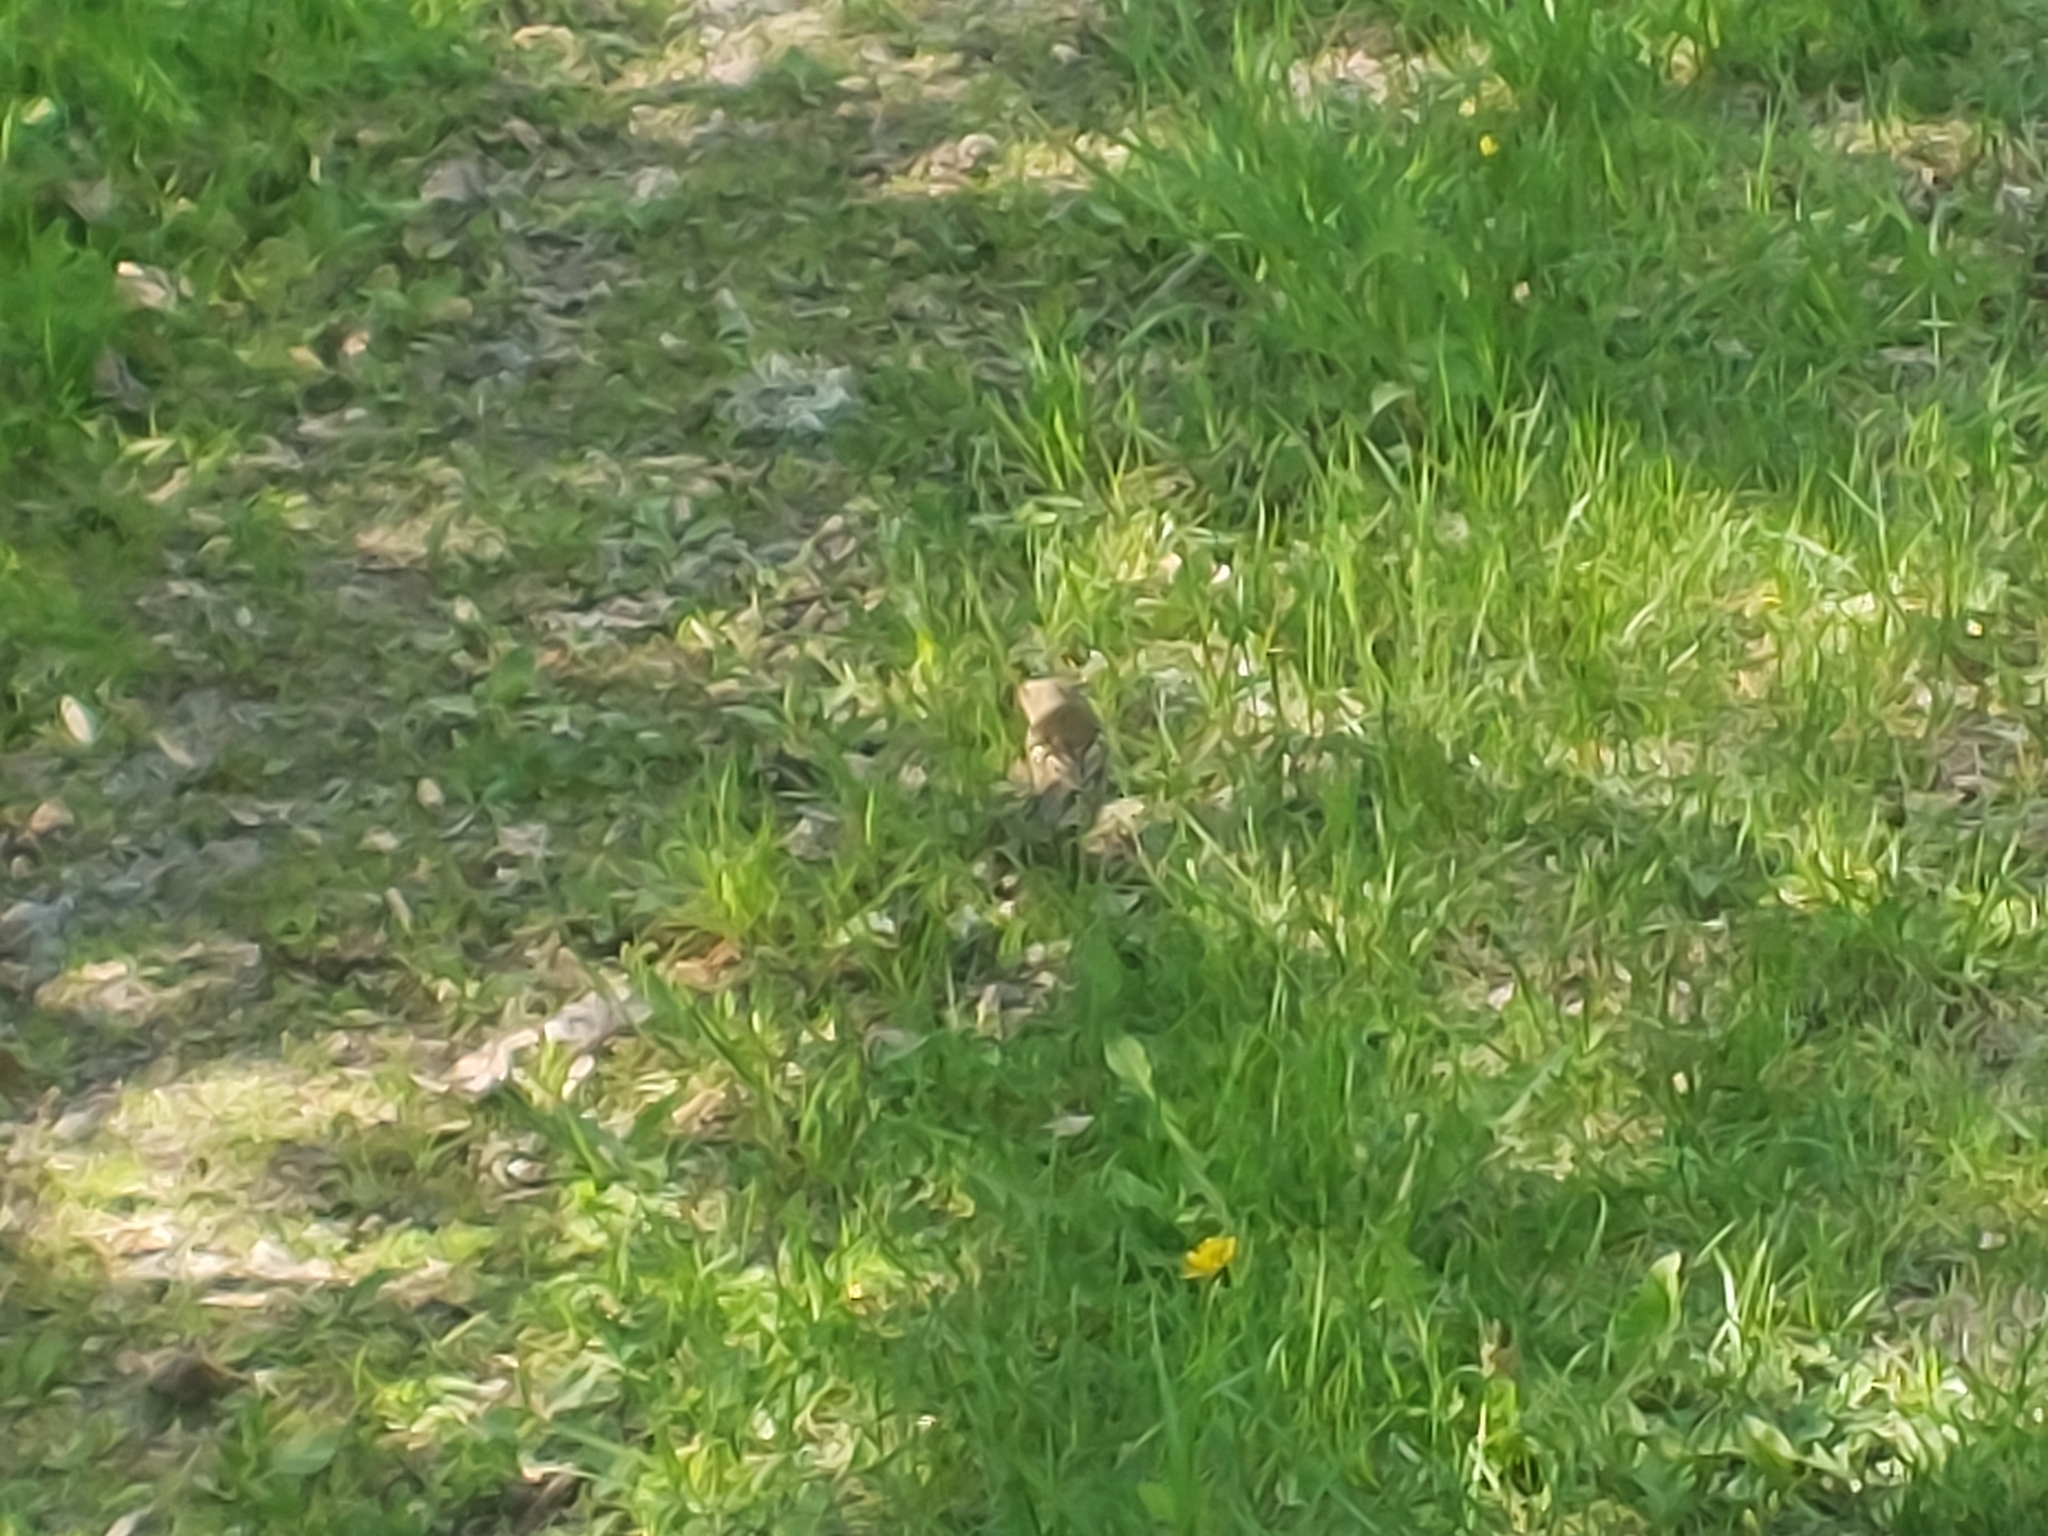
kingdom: Animalia
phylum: Chordata
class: Aves
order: Passeriformes
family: Fringillidae
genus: Fringilla
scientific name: Fringilla coelebs
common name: Common chaffinch
